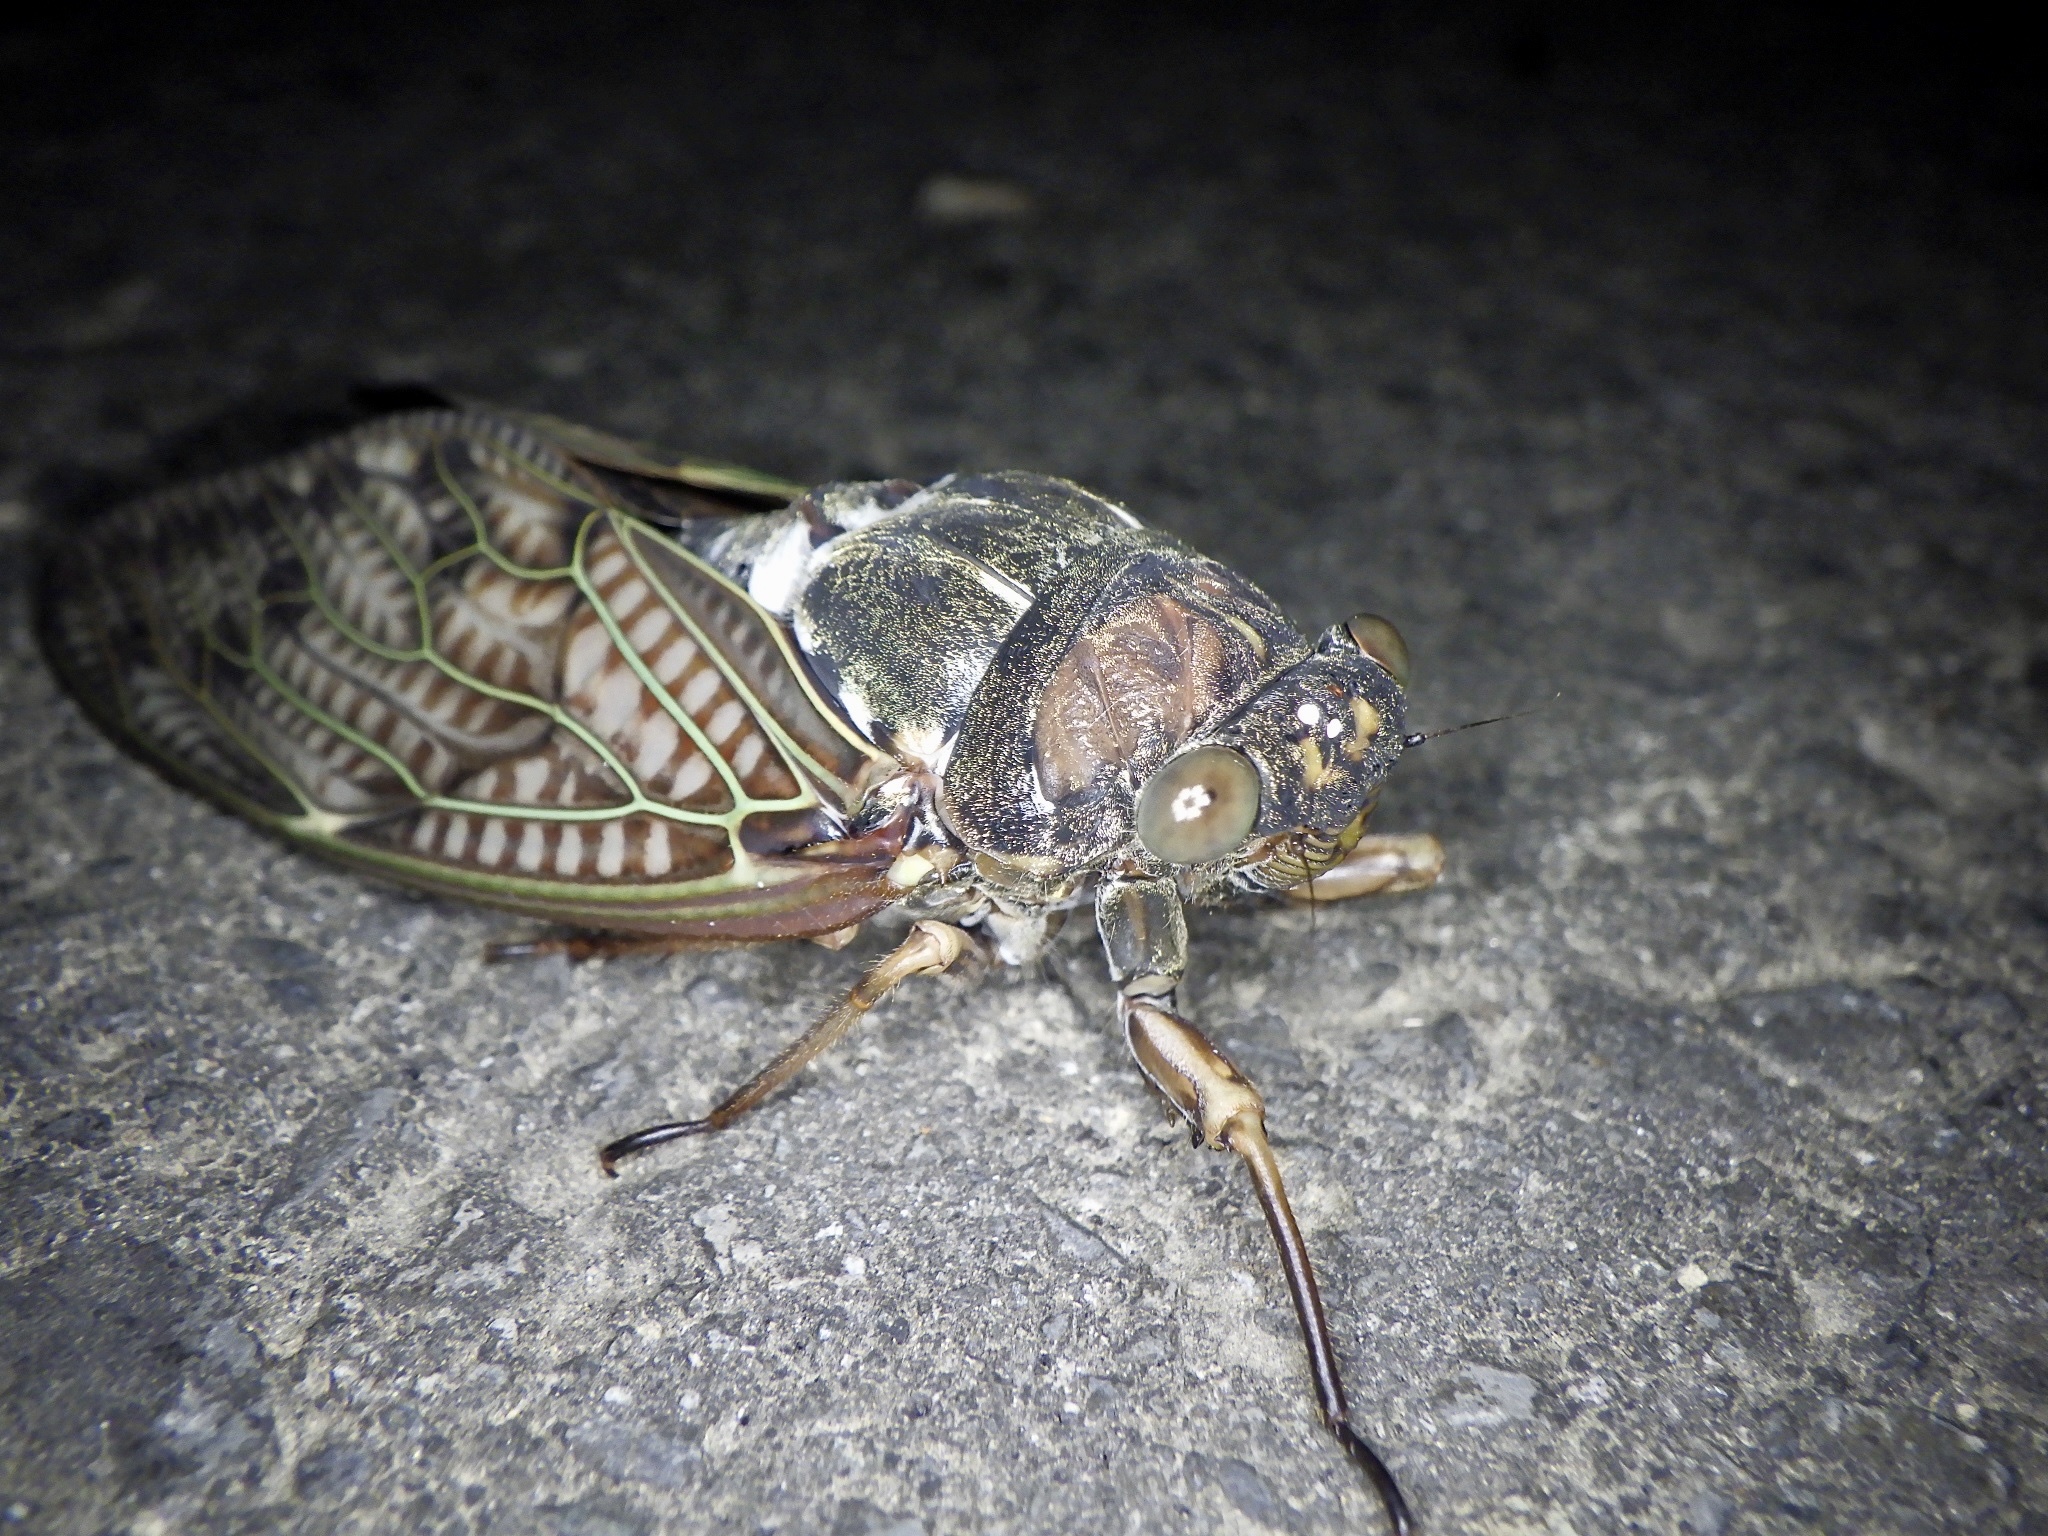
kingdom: Animalia
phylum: Arthropoda
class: Insecta
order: Hemiptera
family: Cicadidae
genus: Graptopsaltria
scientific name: Graptopsaltria nigrofuscata
